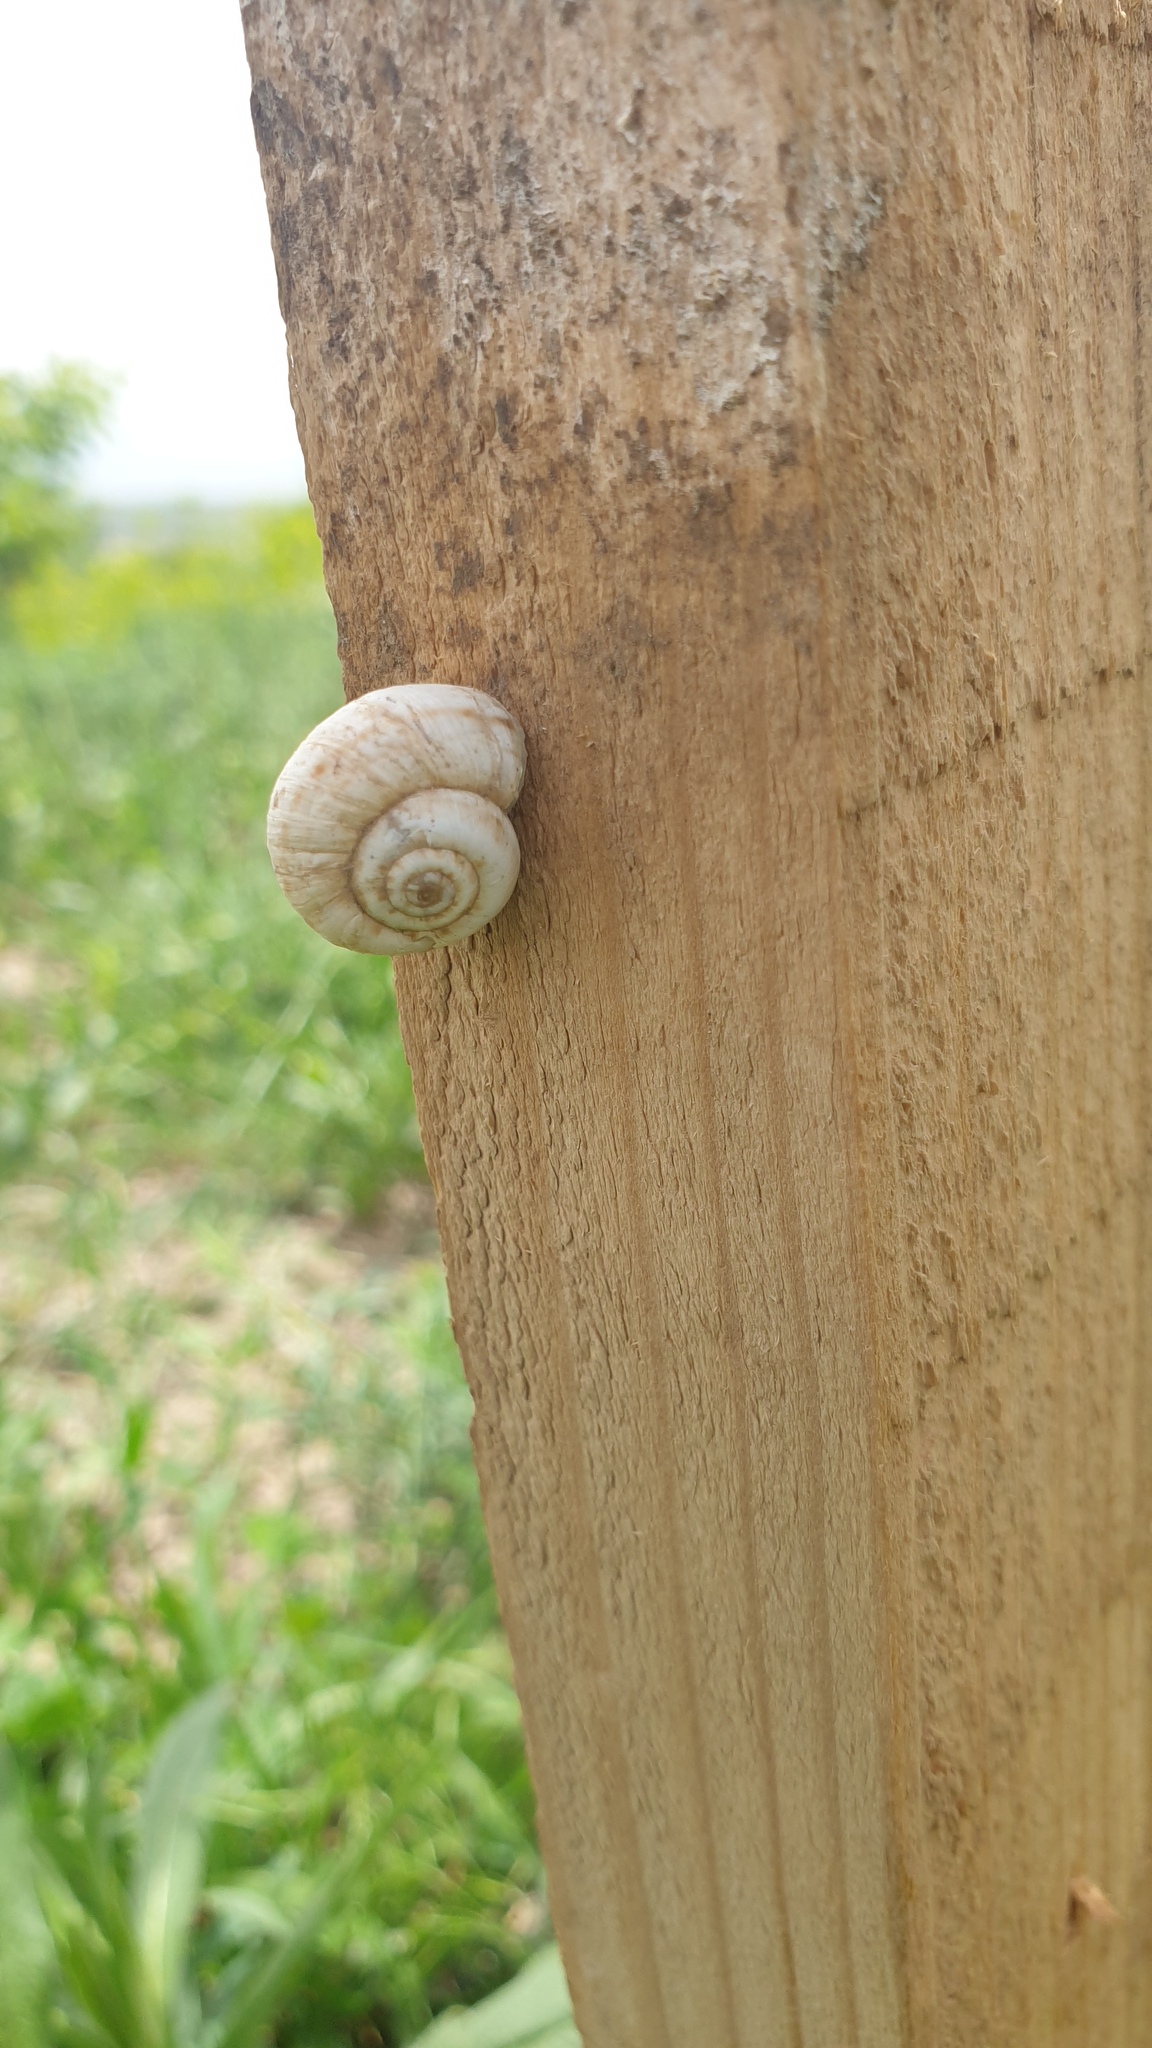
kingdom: Animalia
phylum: Mollusca
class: Gastropoda
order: Stylommatophora
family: Geomitridae
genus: Xeropicta
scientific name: Xeropicta derbentina
